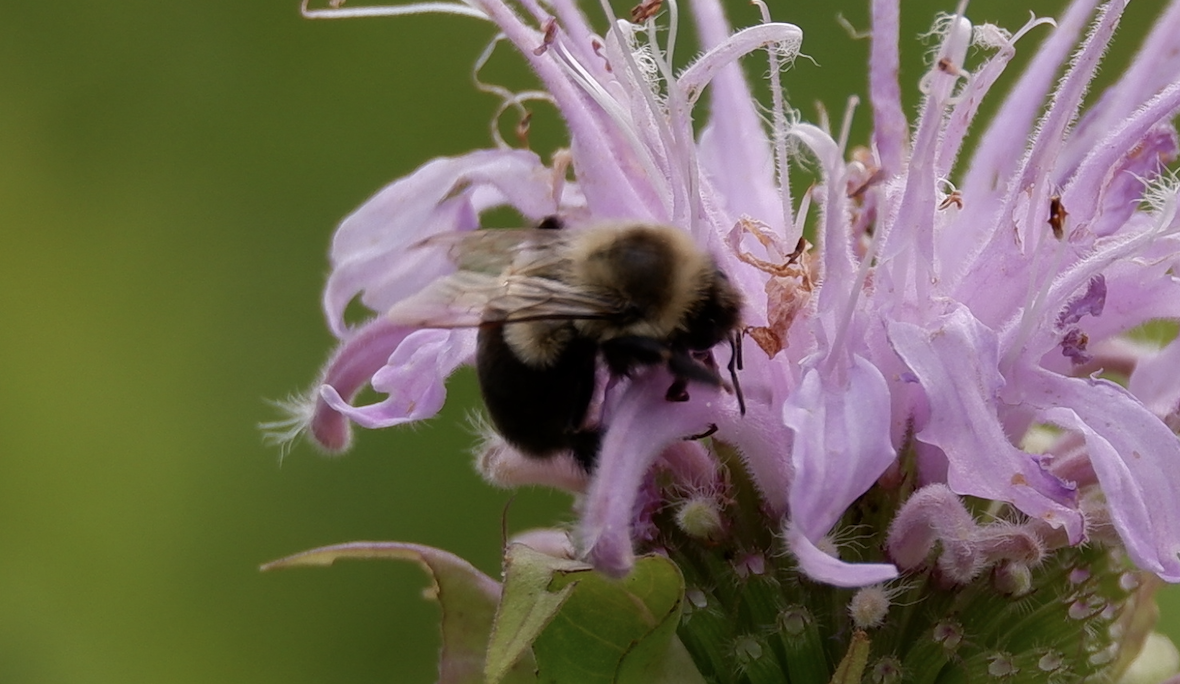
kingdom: Animalia
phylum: Arthropoda
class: Insecta
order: Hymenoptera
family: Apidae
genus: Bombus
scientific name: Bombus impatiens
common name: Common eastern bumble bee
